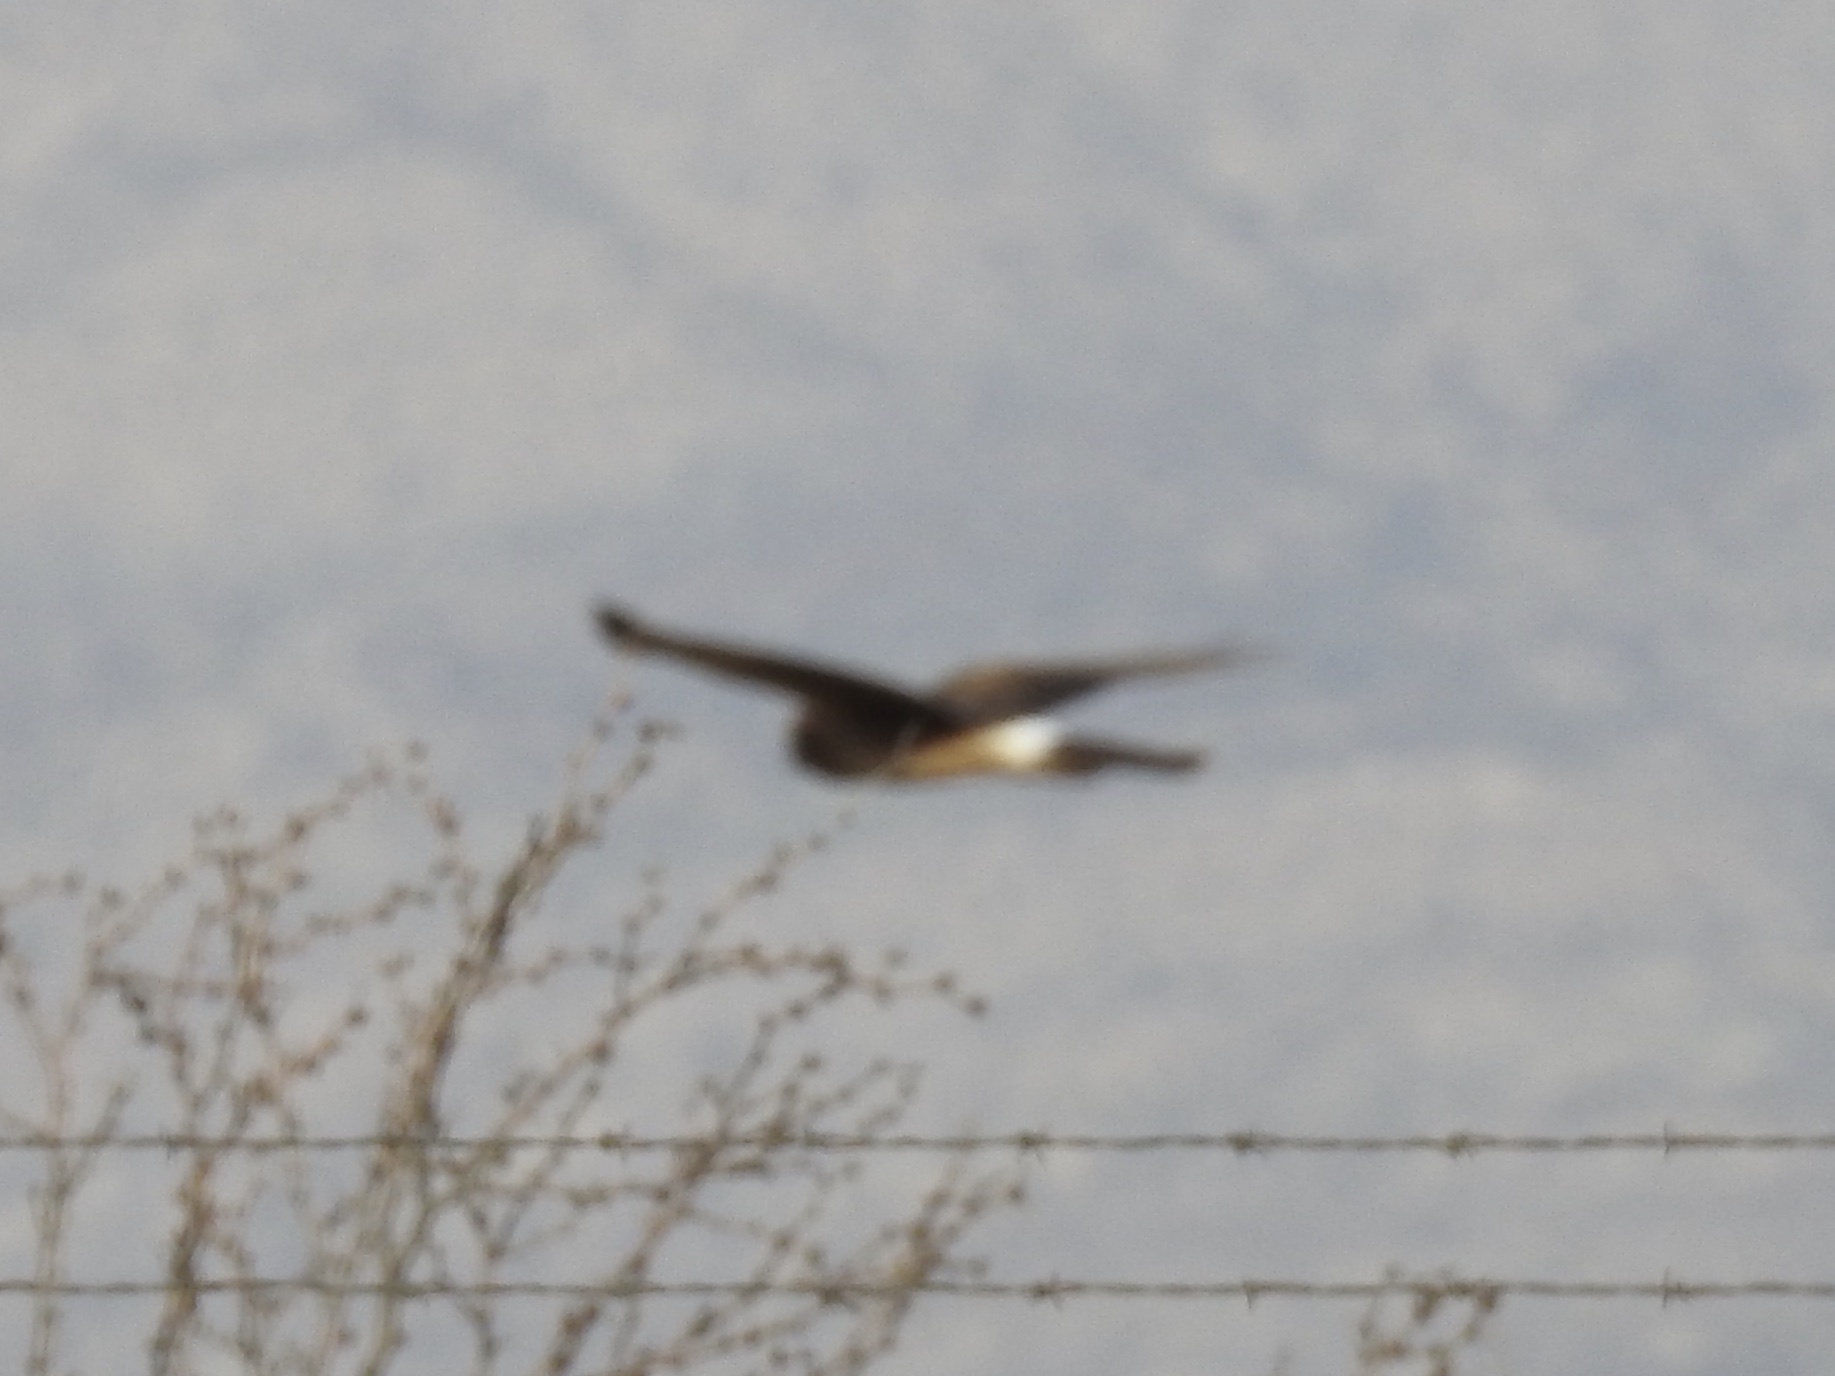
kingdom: Animalia
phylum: Chordata
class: Aves
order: Accipitriformes
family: Accipitridae
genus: Circus
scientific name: Circus cyaneus
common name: Hen harrier
